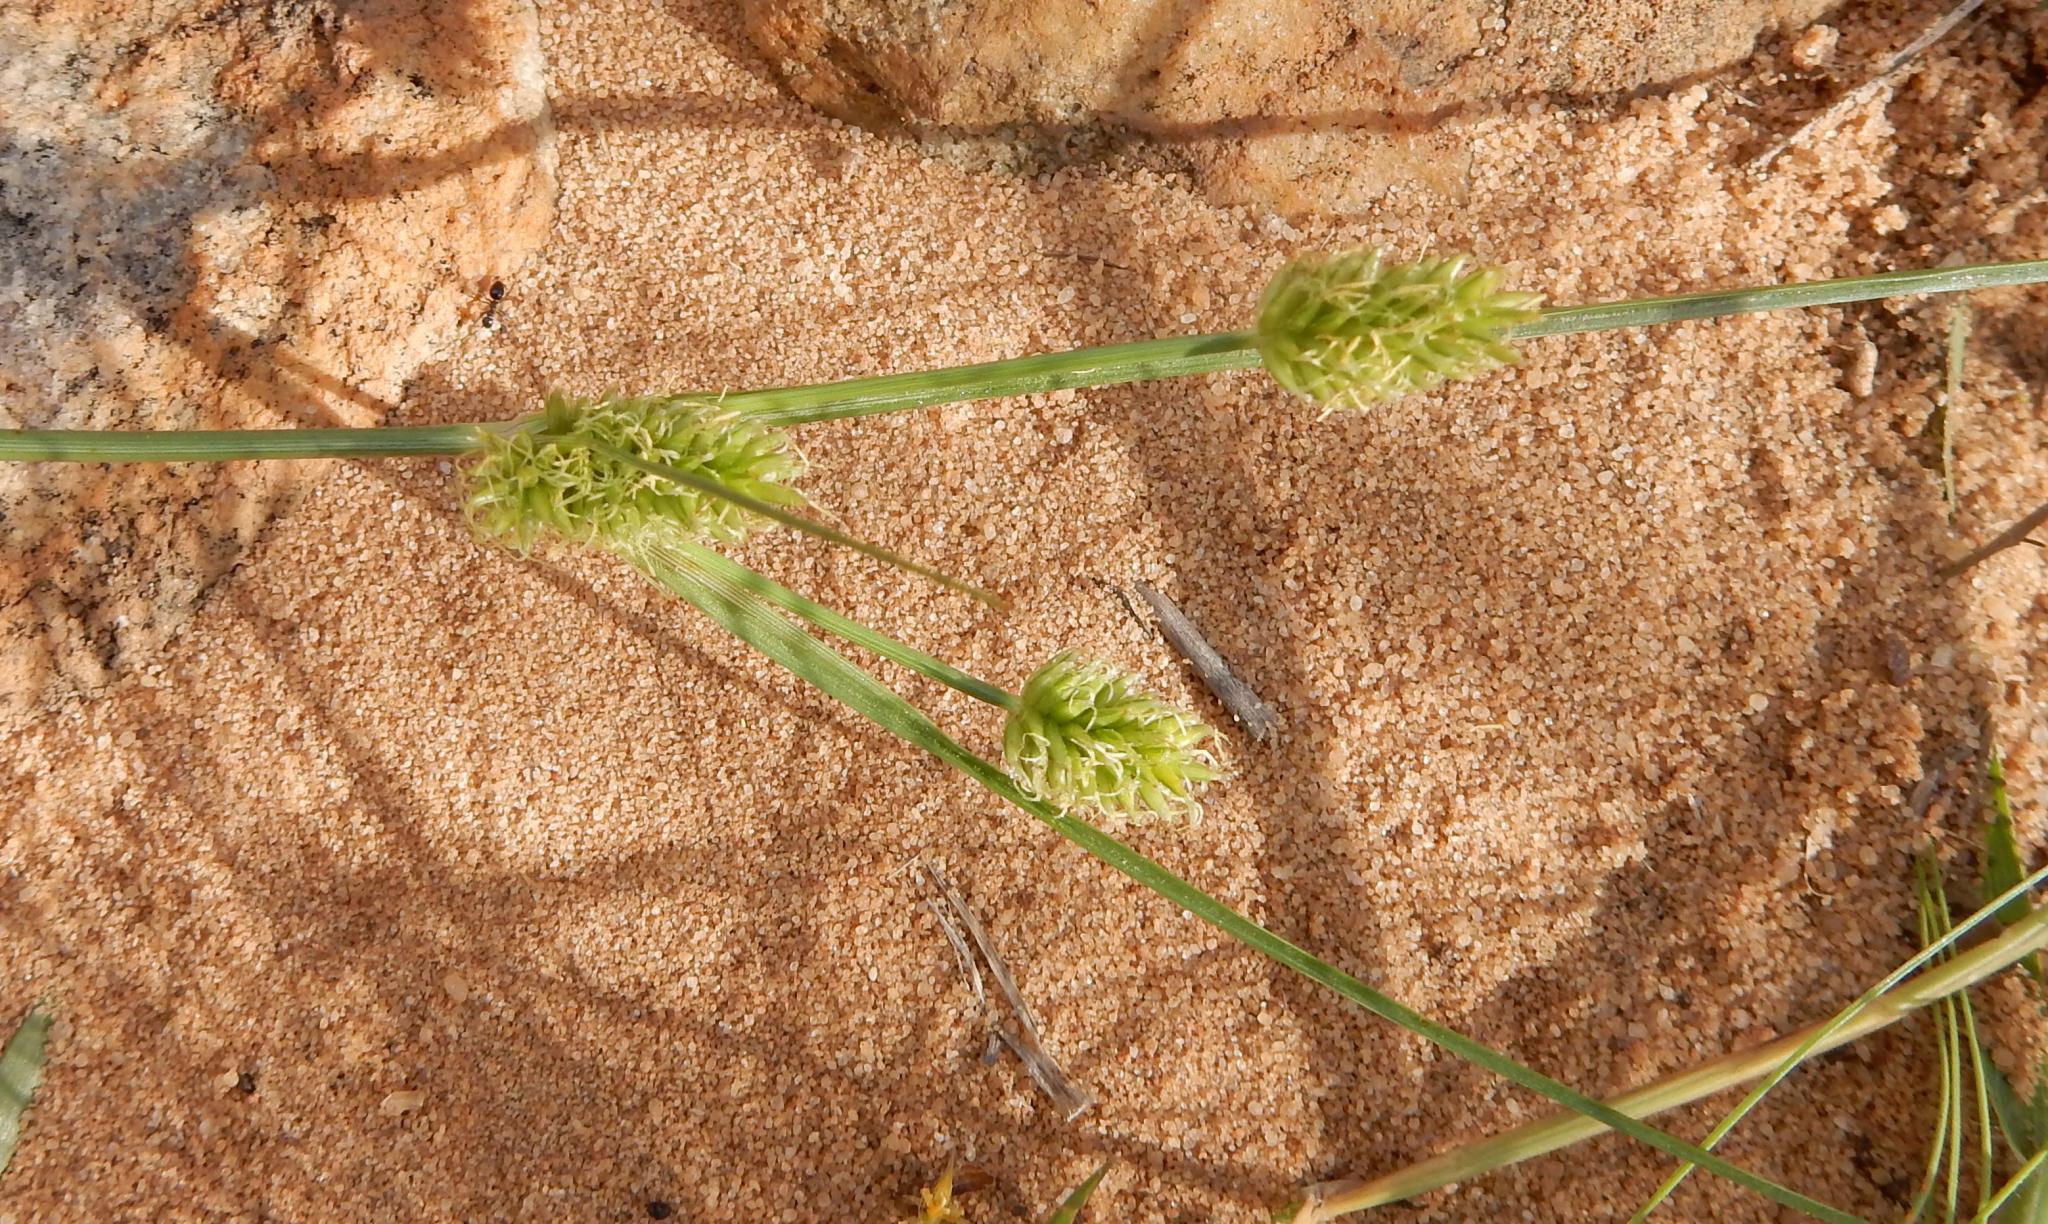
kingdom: Plantae
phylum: Tracheophyta
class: Liliopsida
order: Poales
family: Cyperaceae
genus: Cyperus
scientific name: Cyperus uitenhagensis
